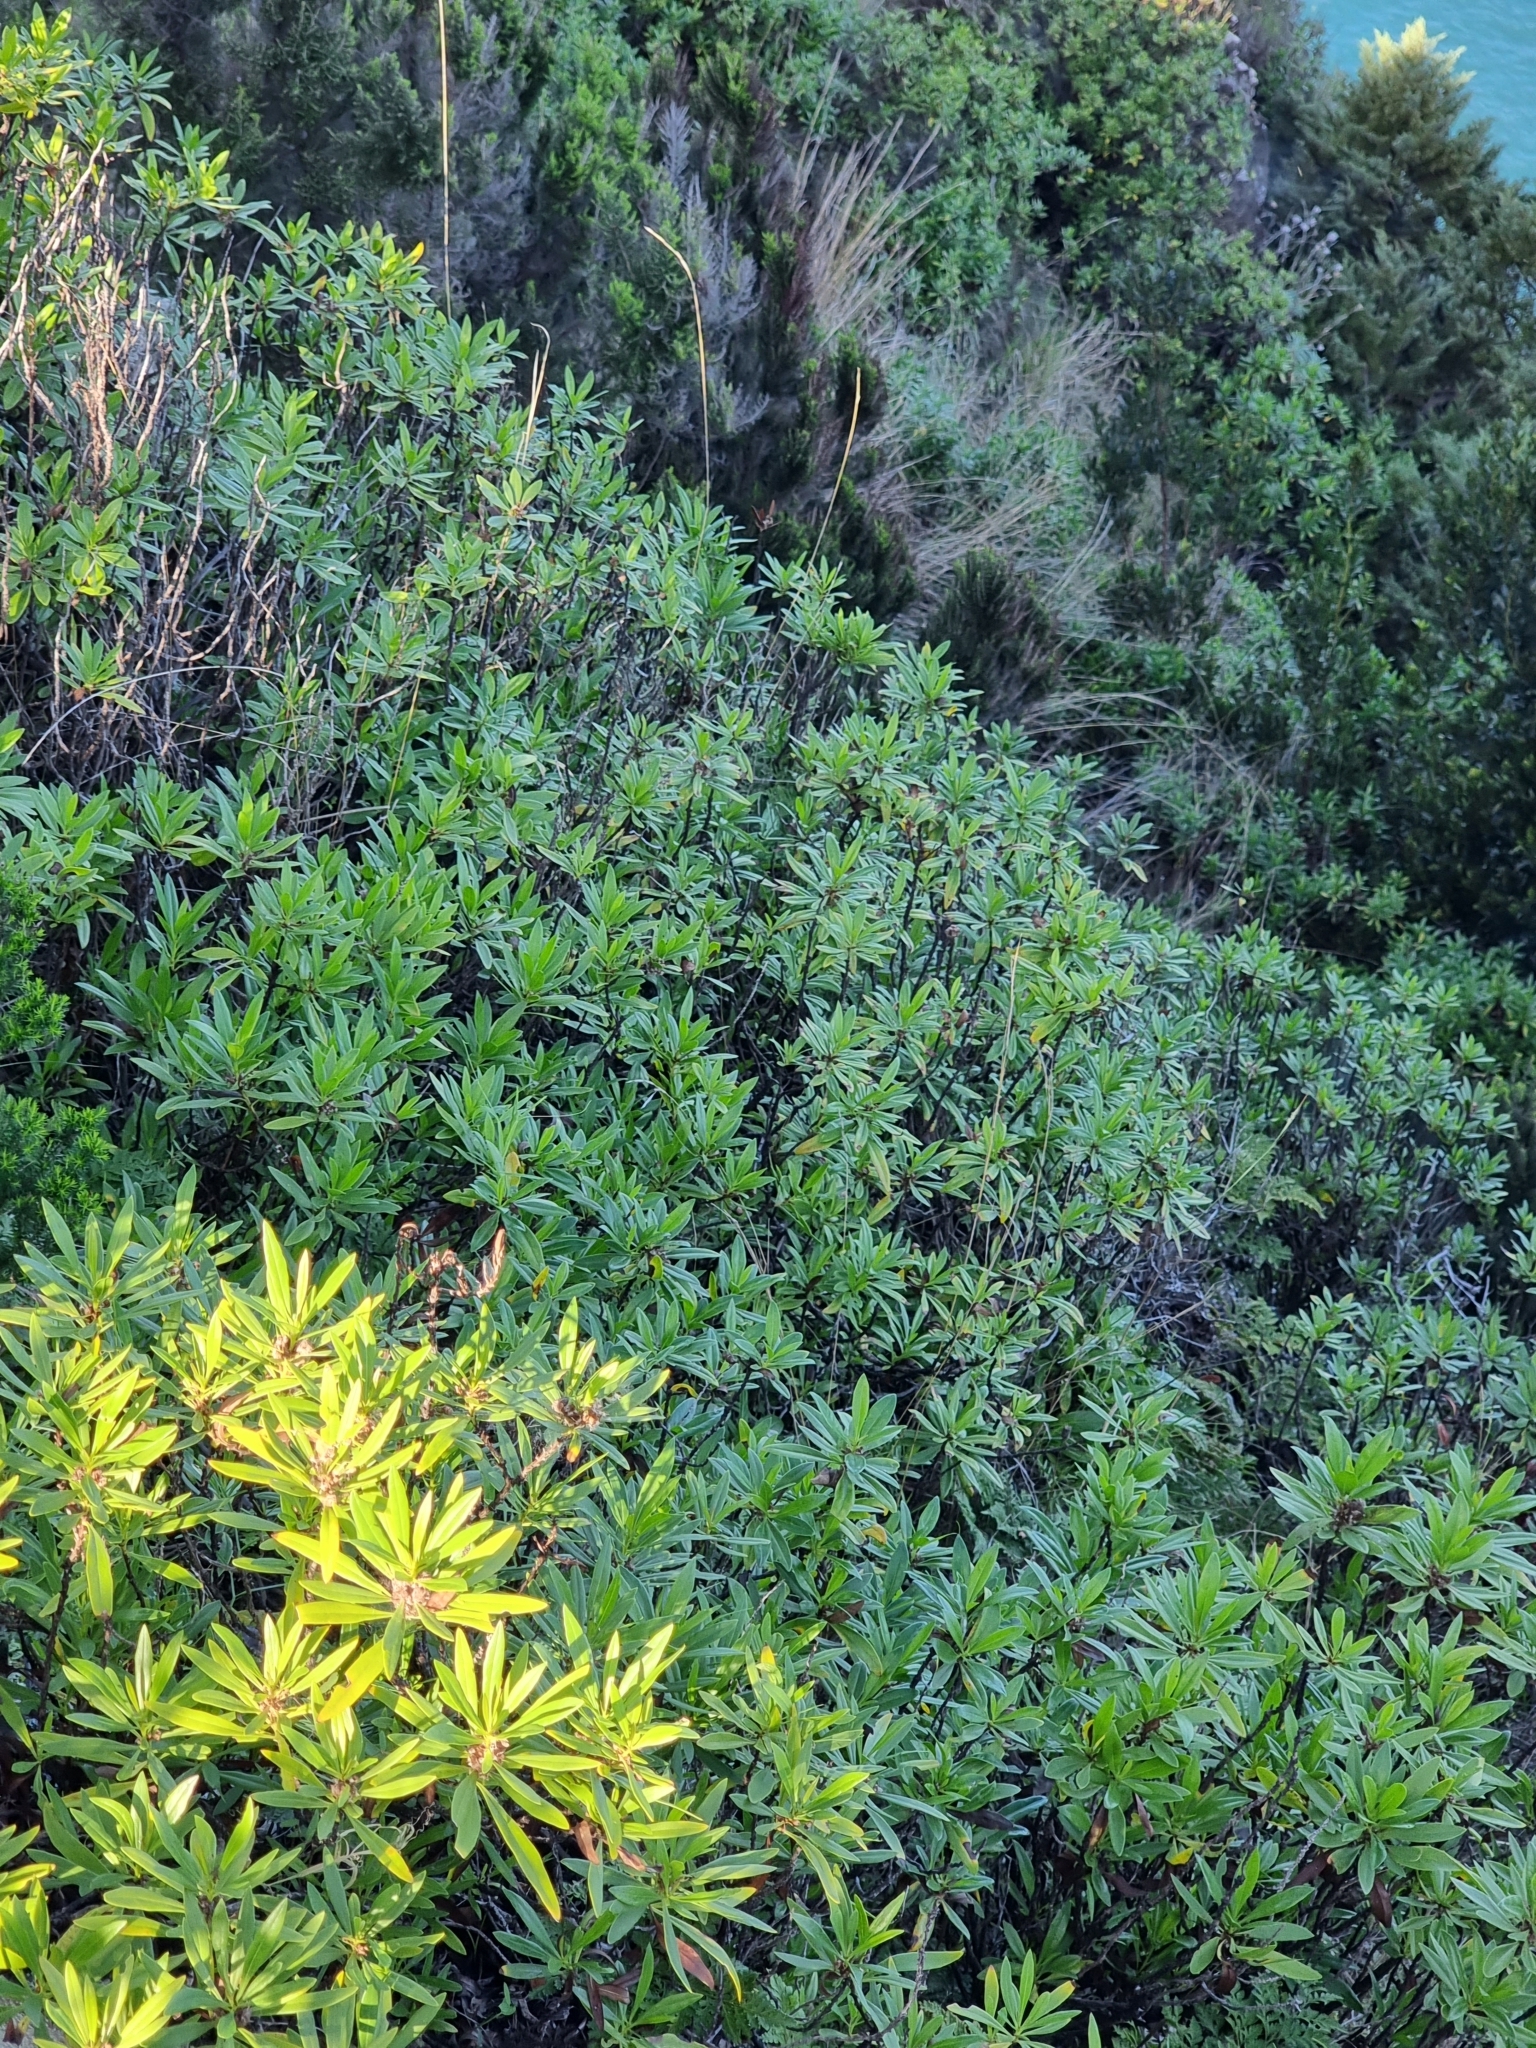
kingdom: Plantae
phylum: Tracheophyta
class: Magnoliopsida
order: Lamiales
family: Plantaginaceae
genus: Globularia
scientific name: Globularia salicina
